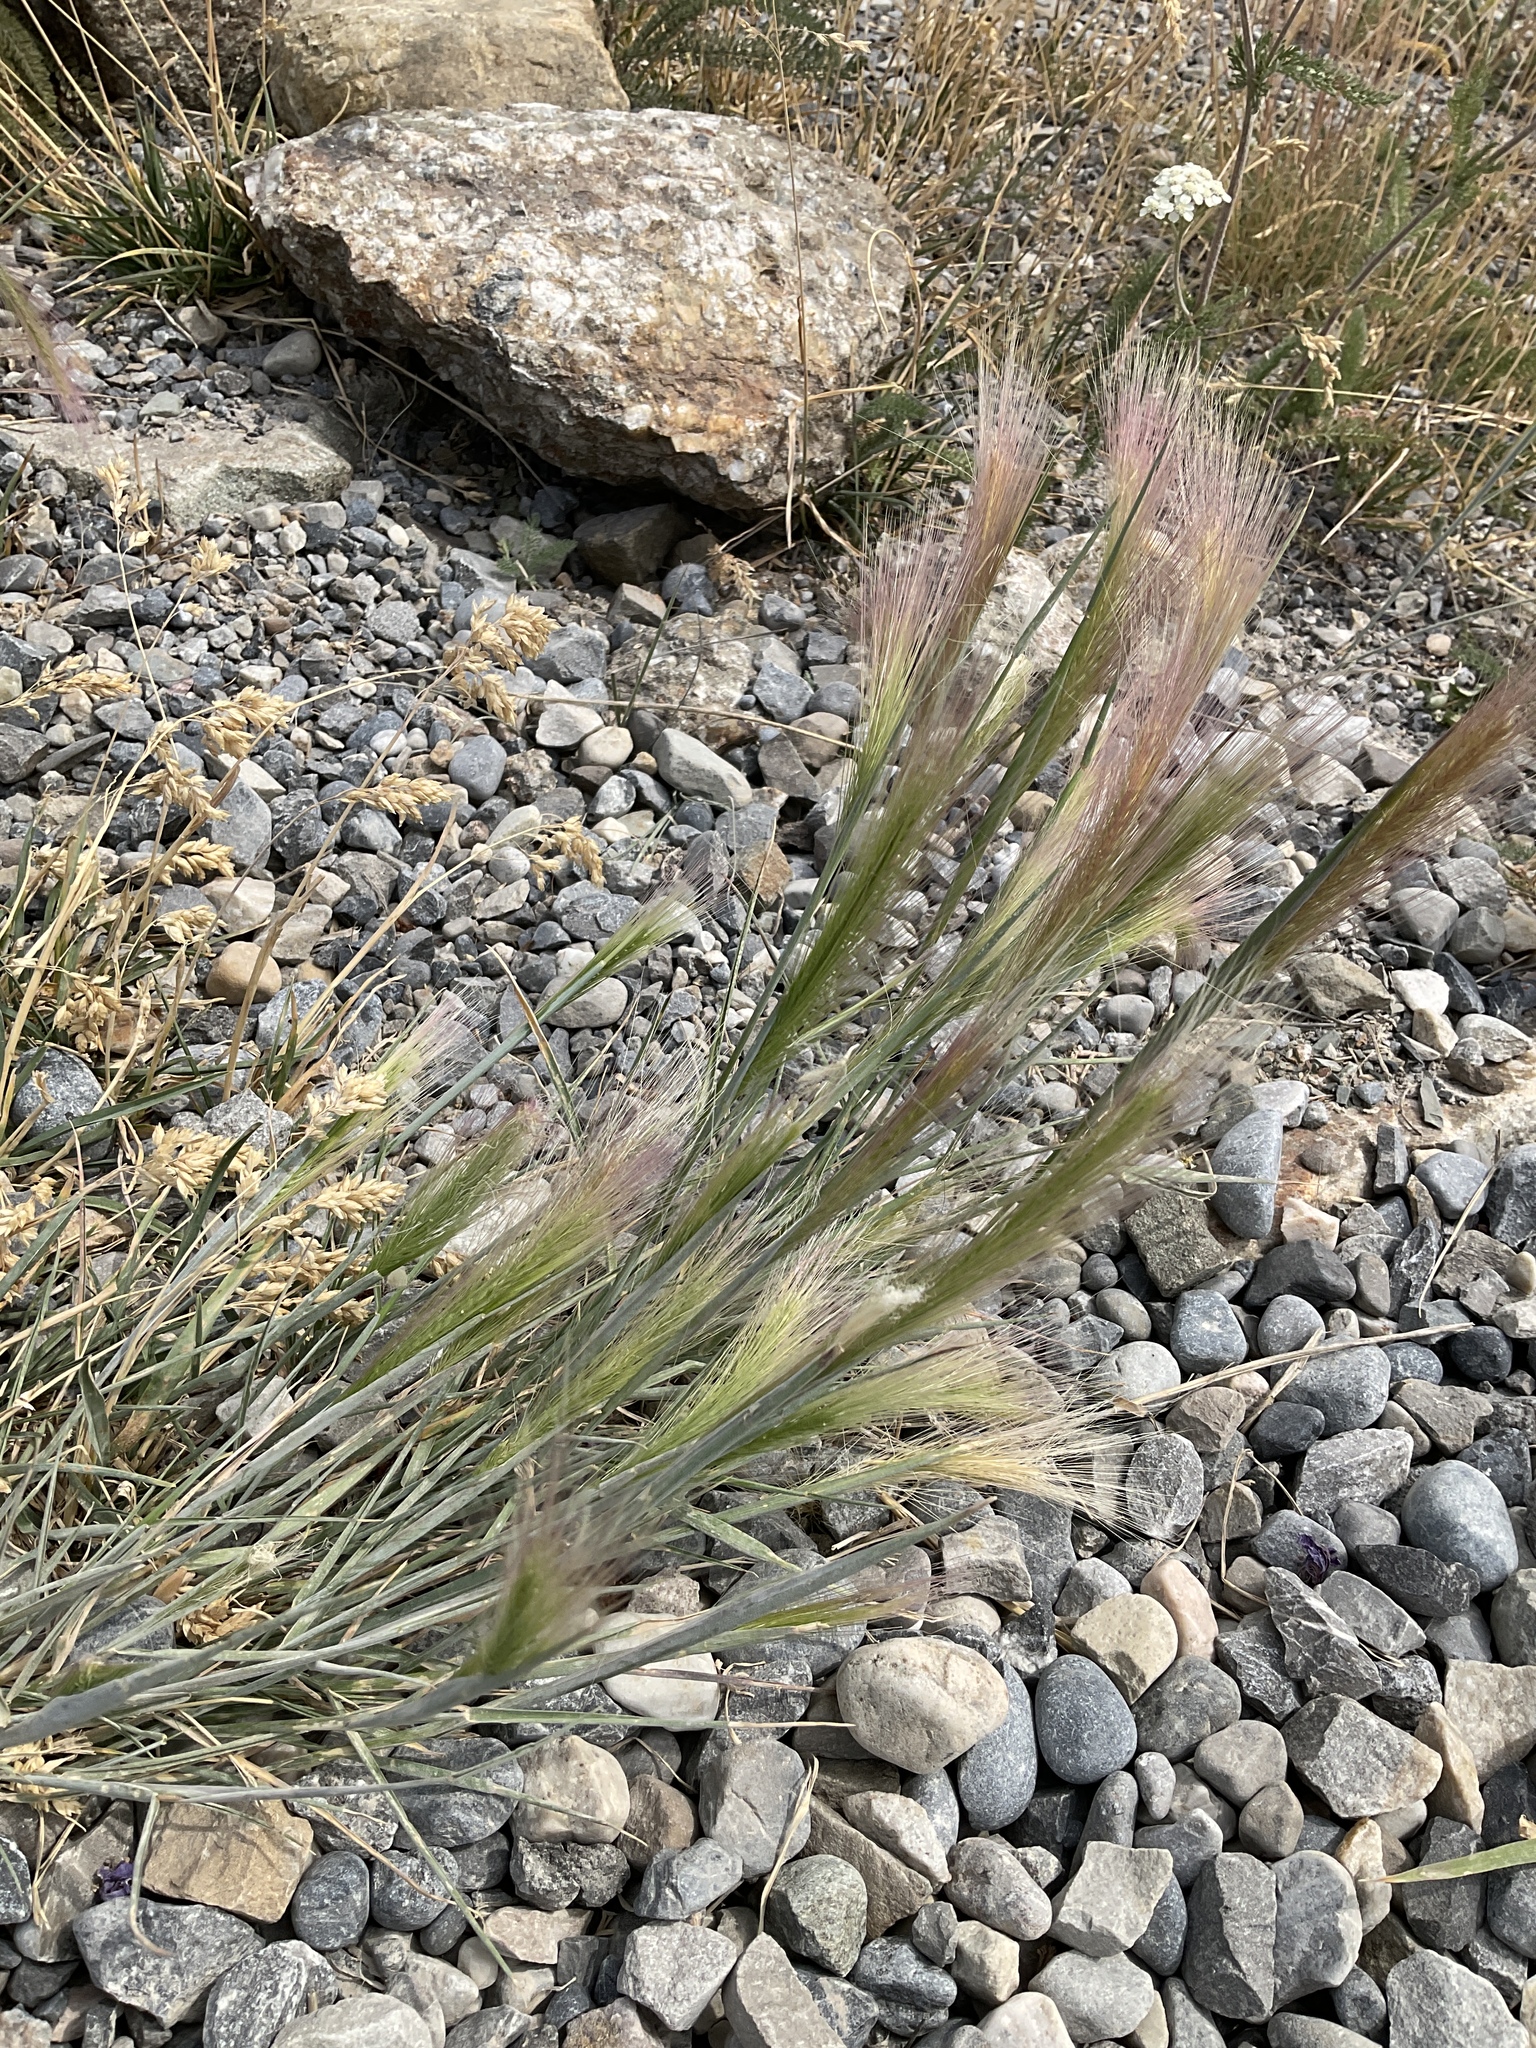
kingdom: Plantae
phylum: Tracheophyta
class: Liliopsida
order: Poales
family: Poaceae
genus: Hordeum
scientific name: Hordeum jubatum
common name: Foxtail barley
